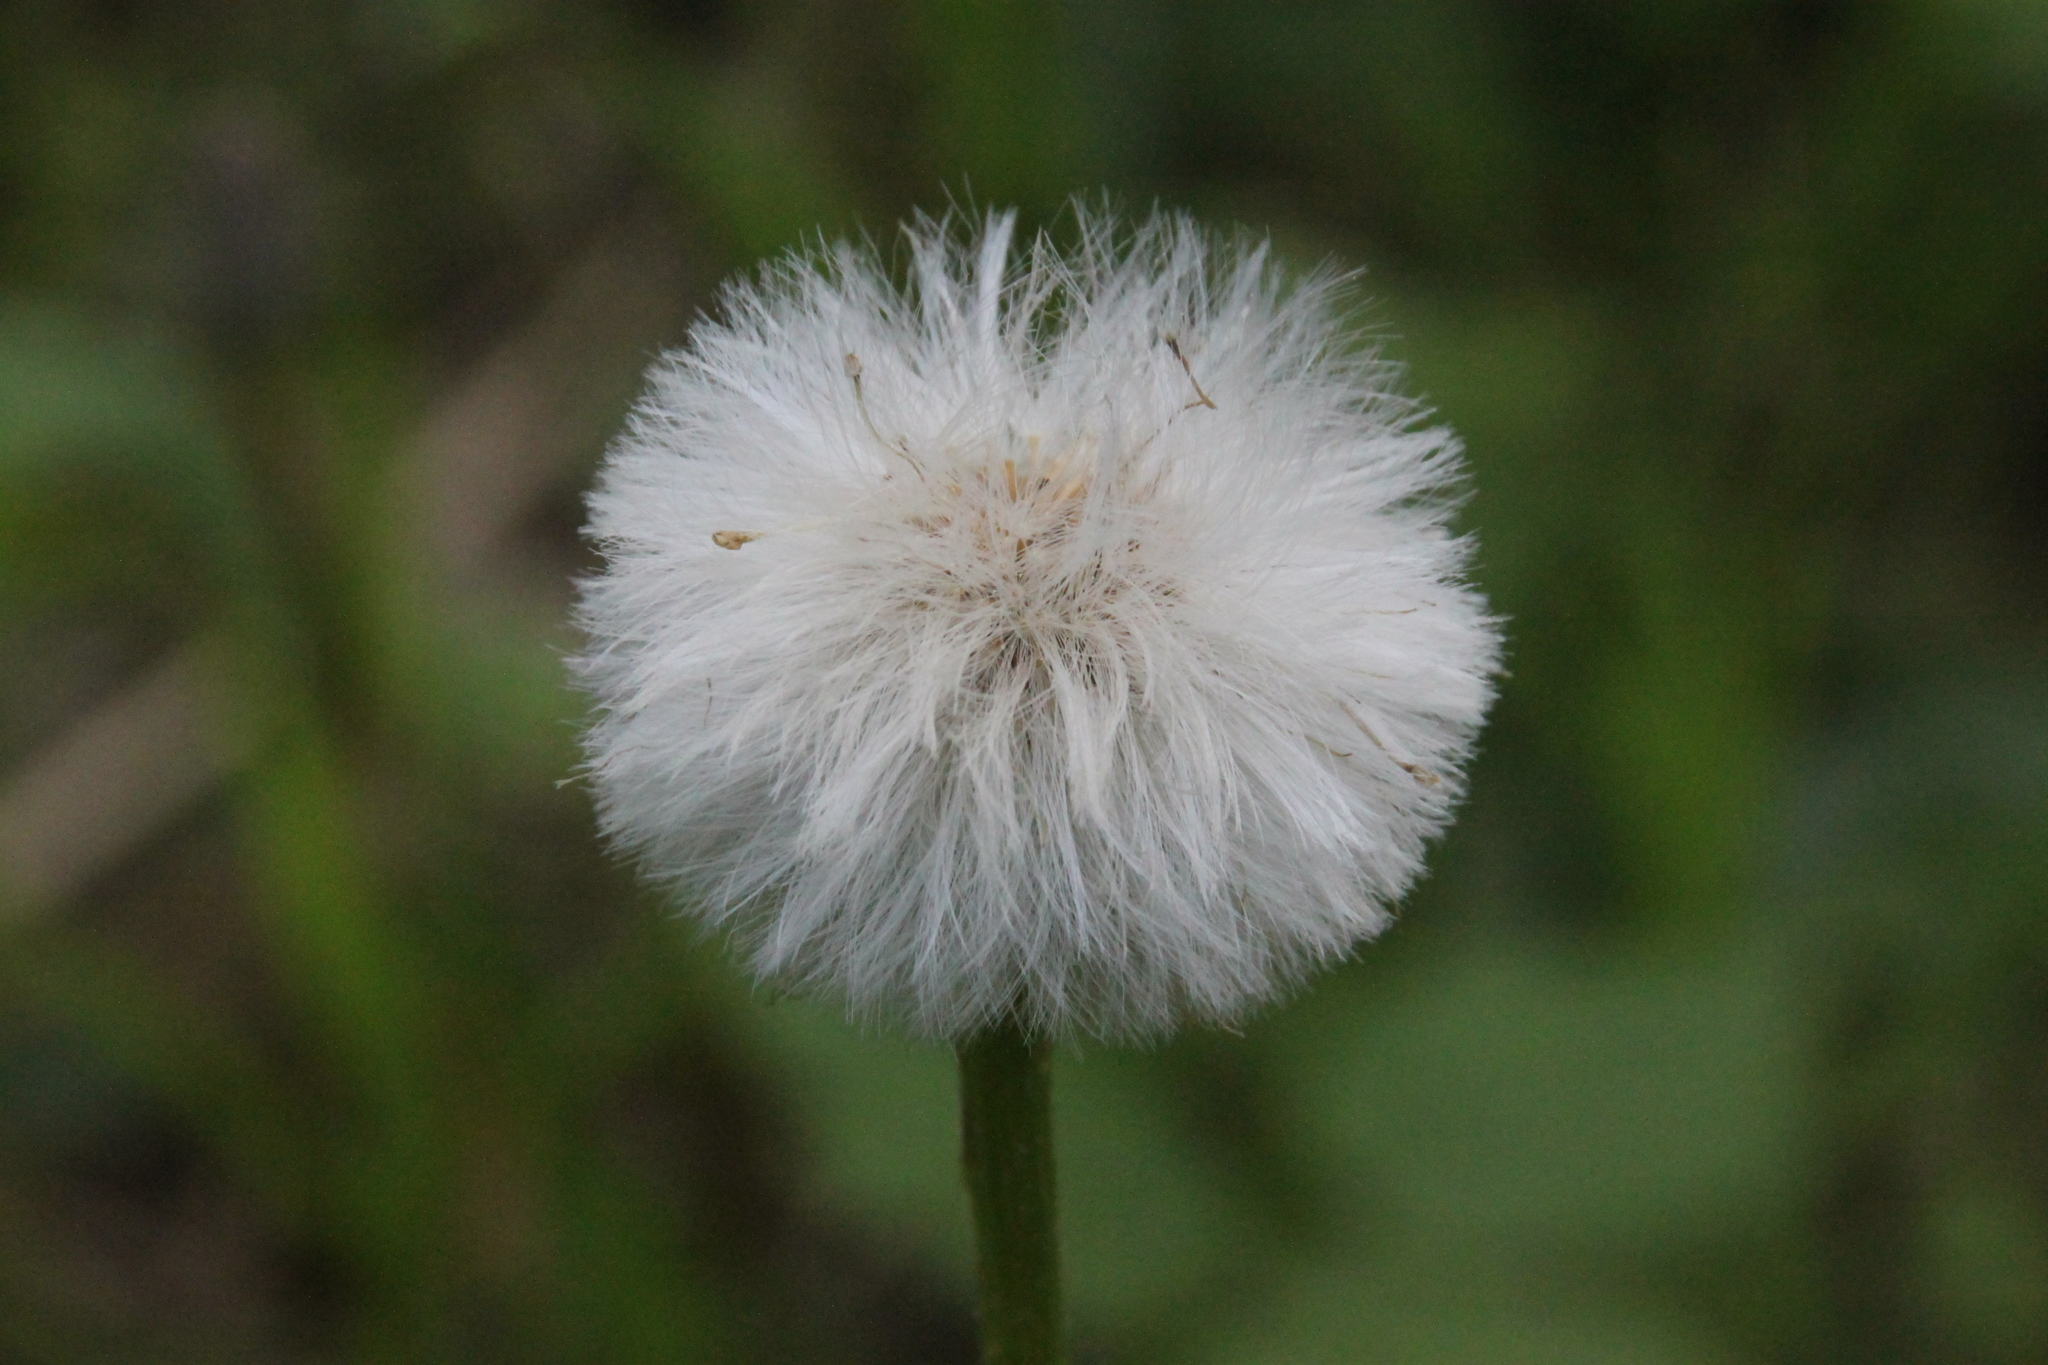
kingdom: Plantae
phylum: Tracheophyta
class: Magnoliopsida
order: Asterales
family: Asteraceae
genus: Tussilago
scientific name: Tussilago farfara
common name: Coltsfoot
